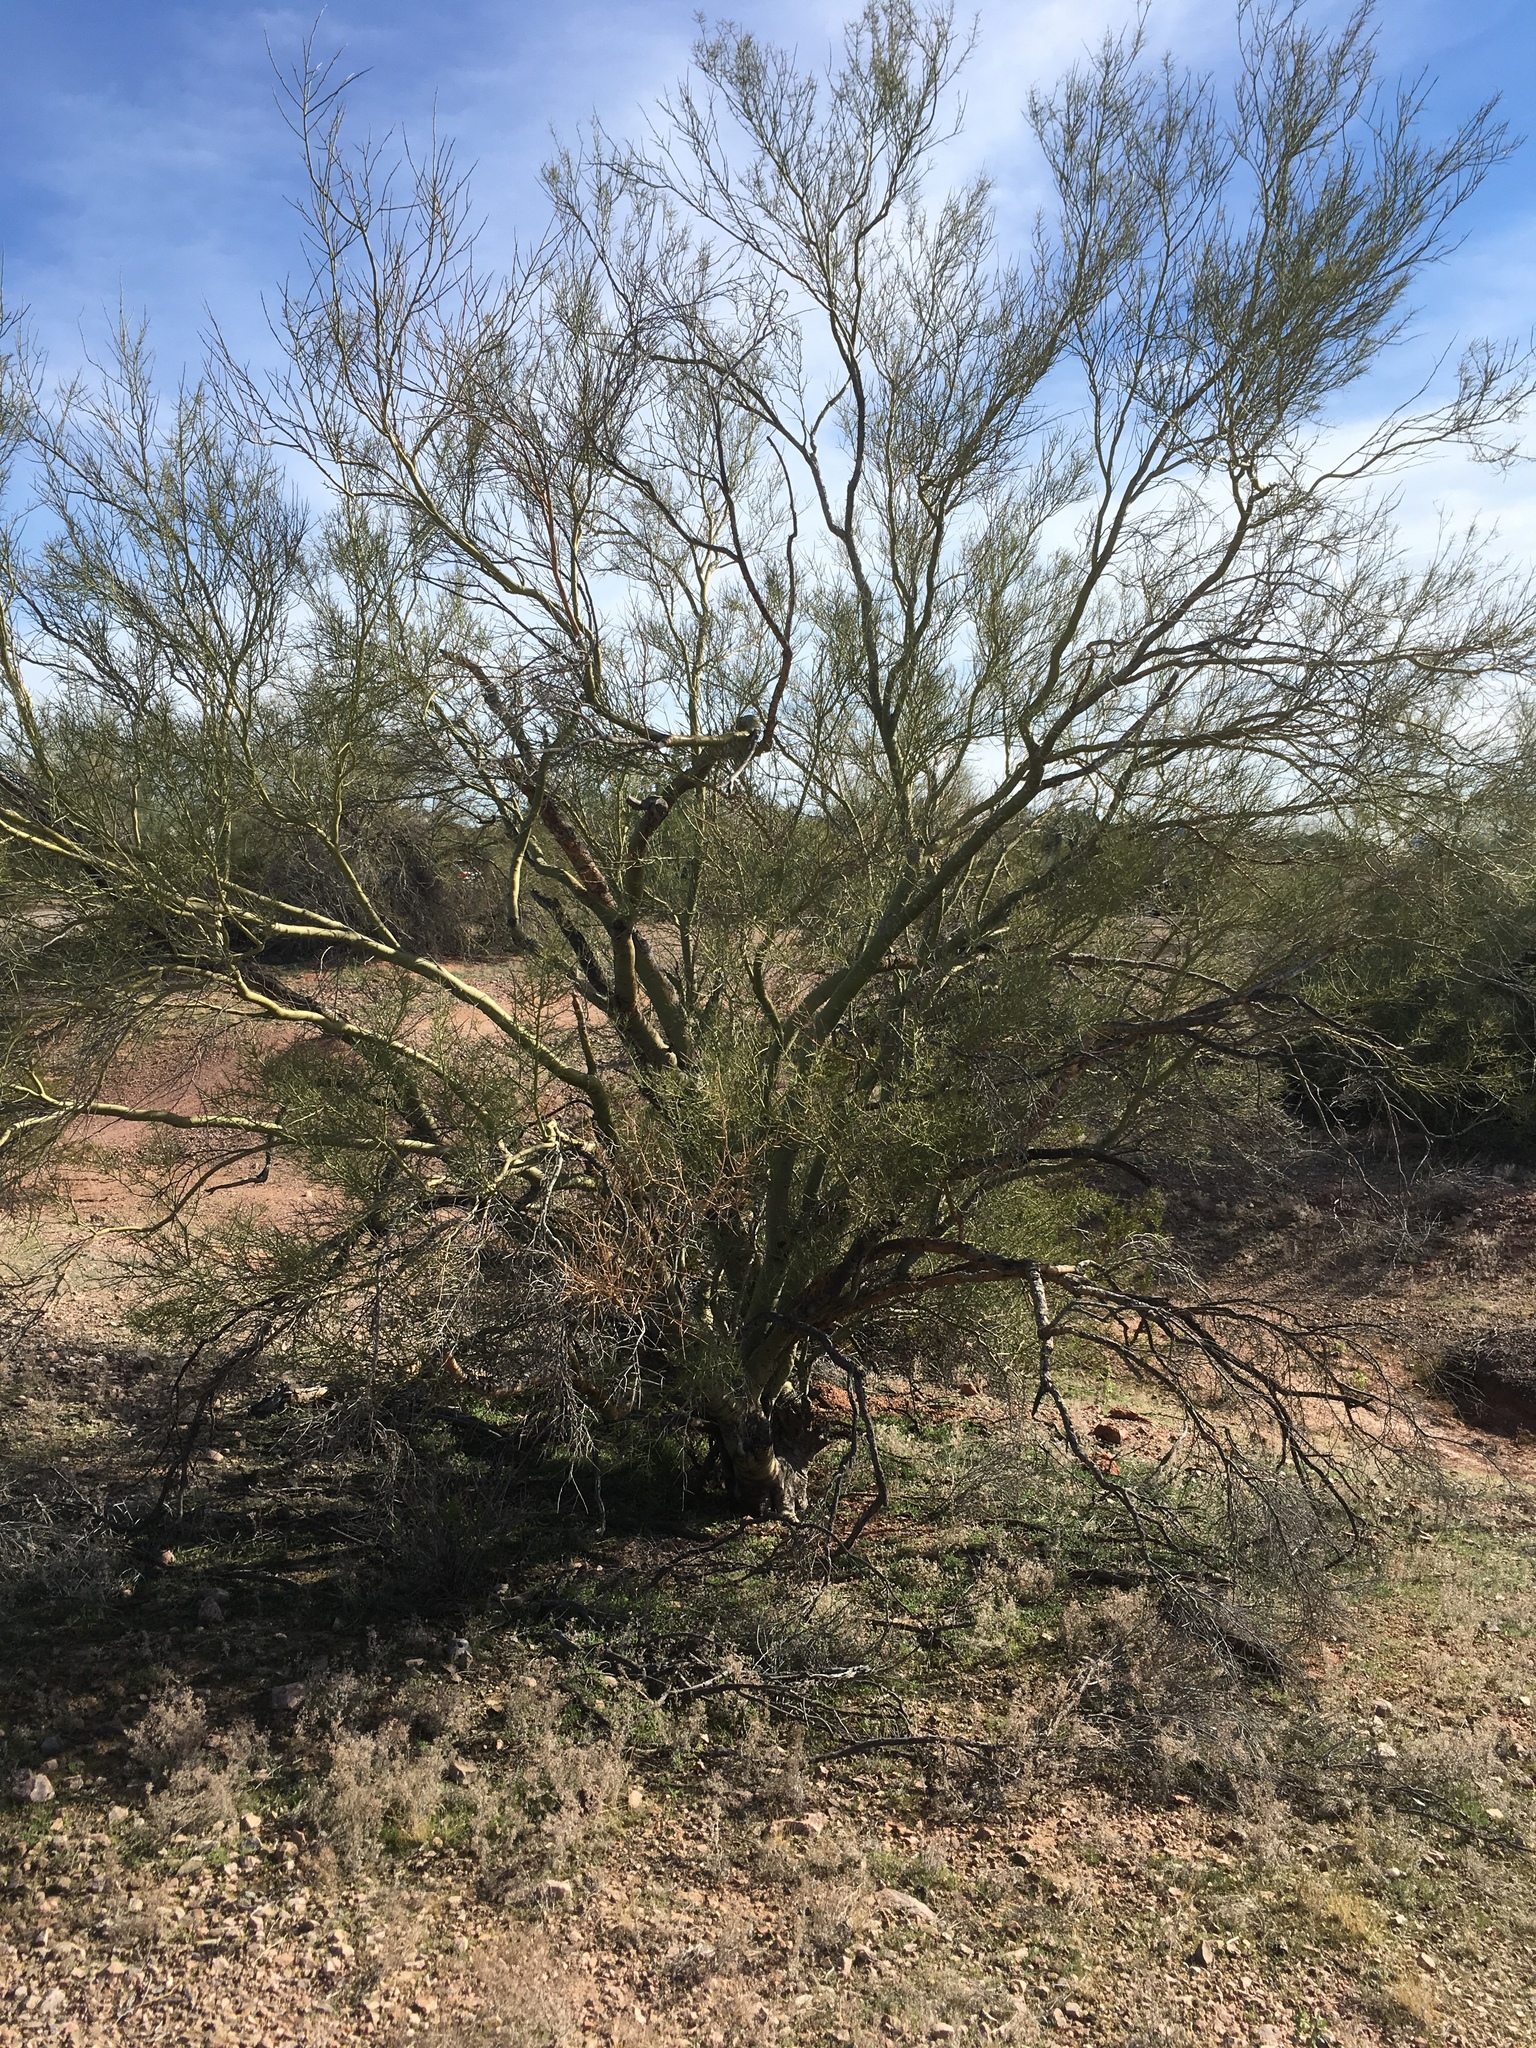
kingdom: Plantae
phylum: Tracheophyta
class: Magnoliopsida
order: Fabales
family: Fabaceae
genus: Parkinsonia
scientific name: Parkinsonia microphylla
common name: Yellow paloverde
